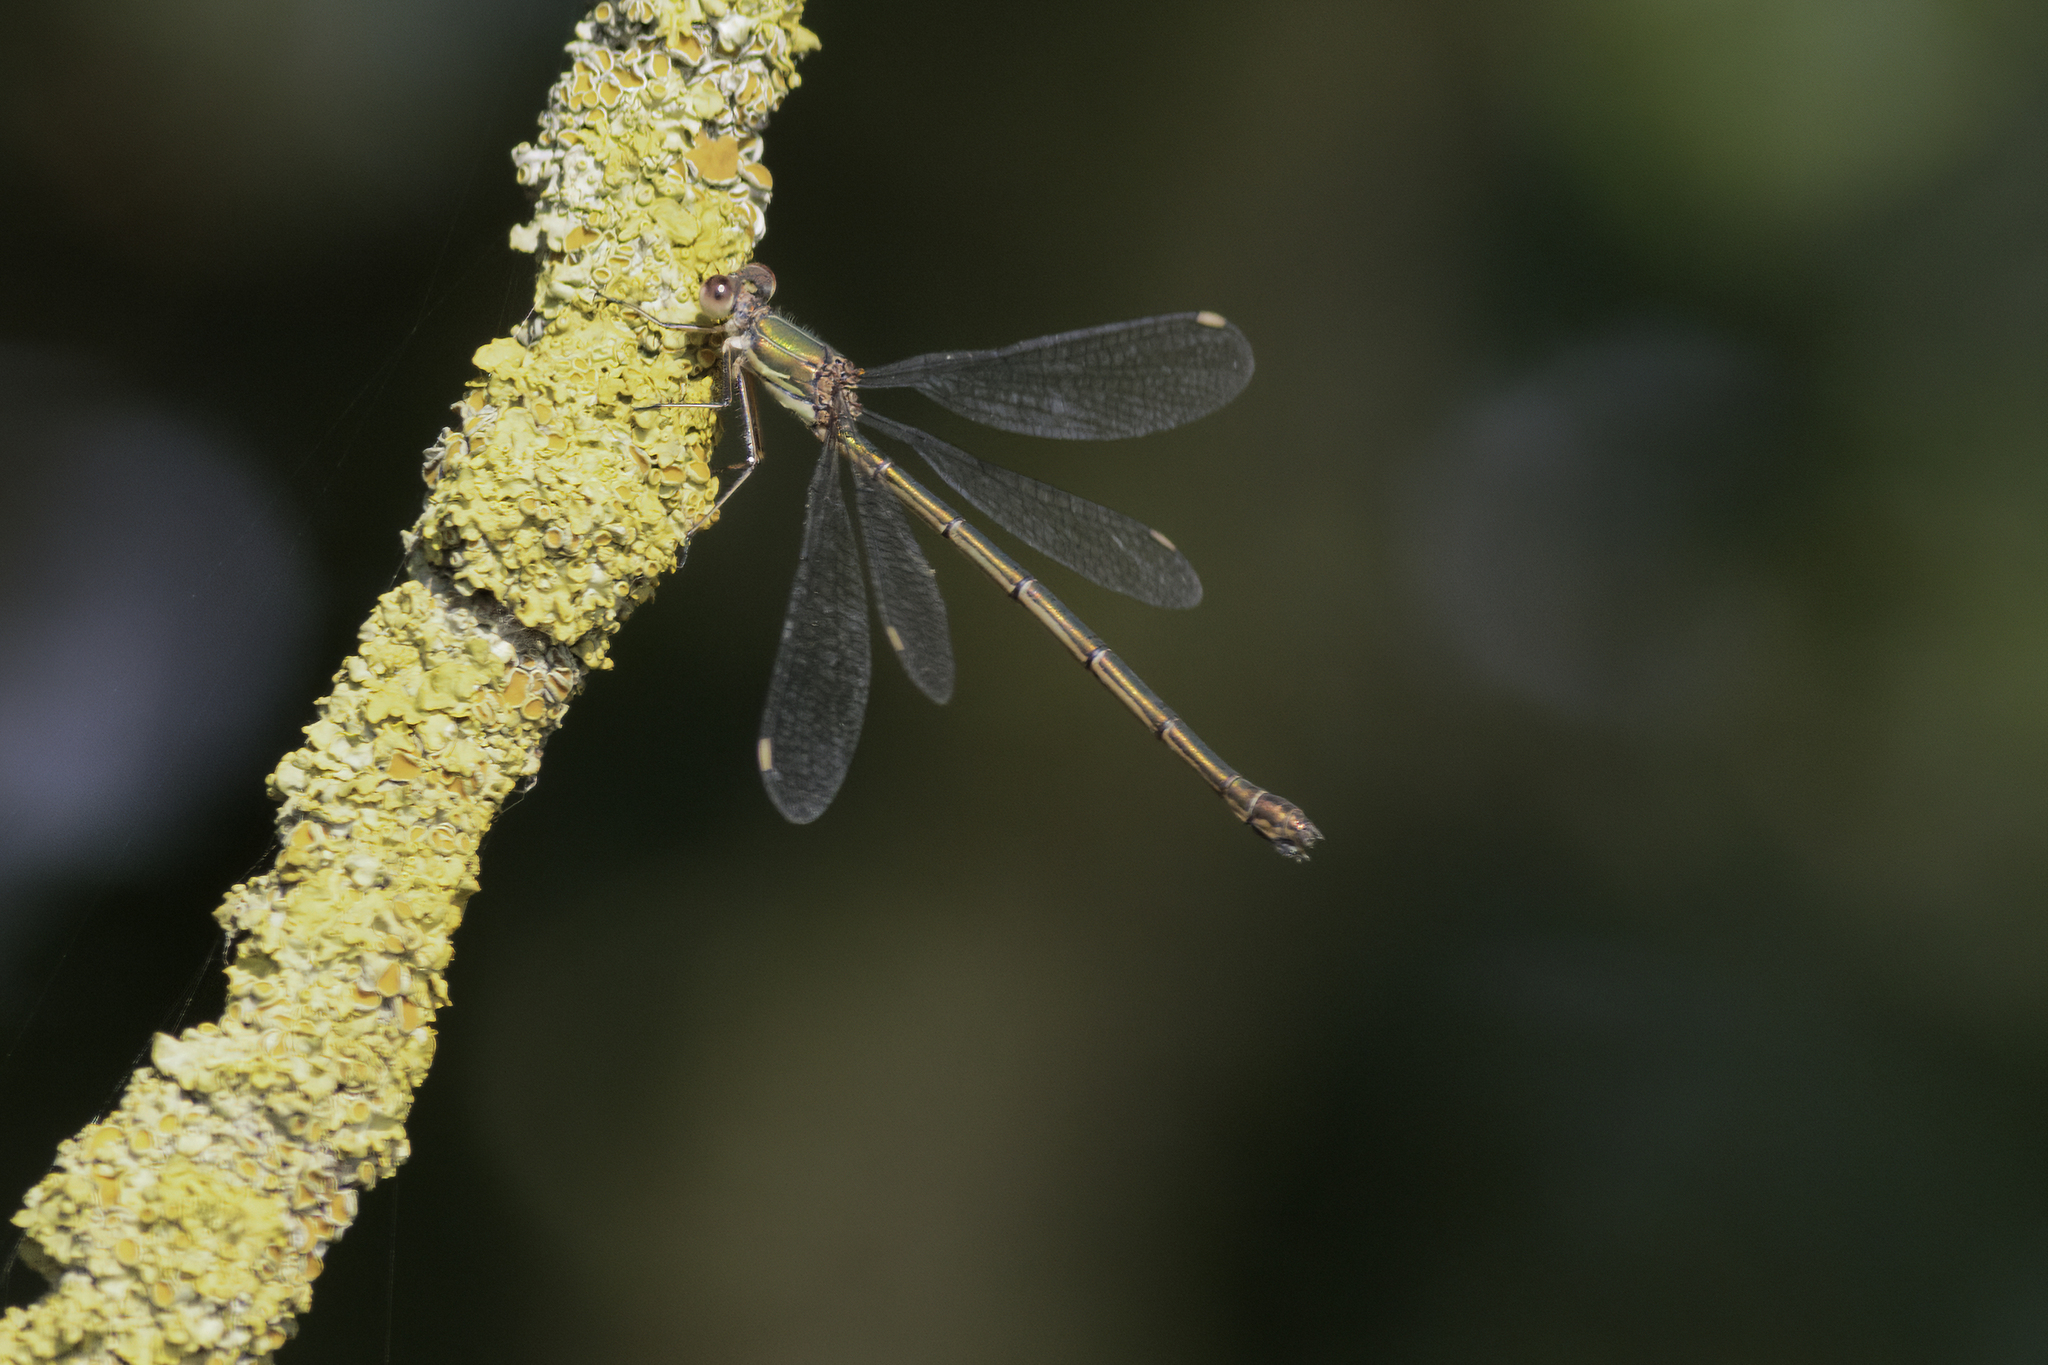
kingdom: Animalia
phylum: Arthropoda
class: Insecta
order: Odonata
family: Lestidae
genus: Chalcolestes
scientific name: Chalcolestes viridis
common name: Green emerald damselfly
